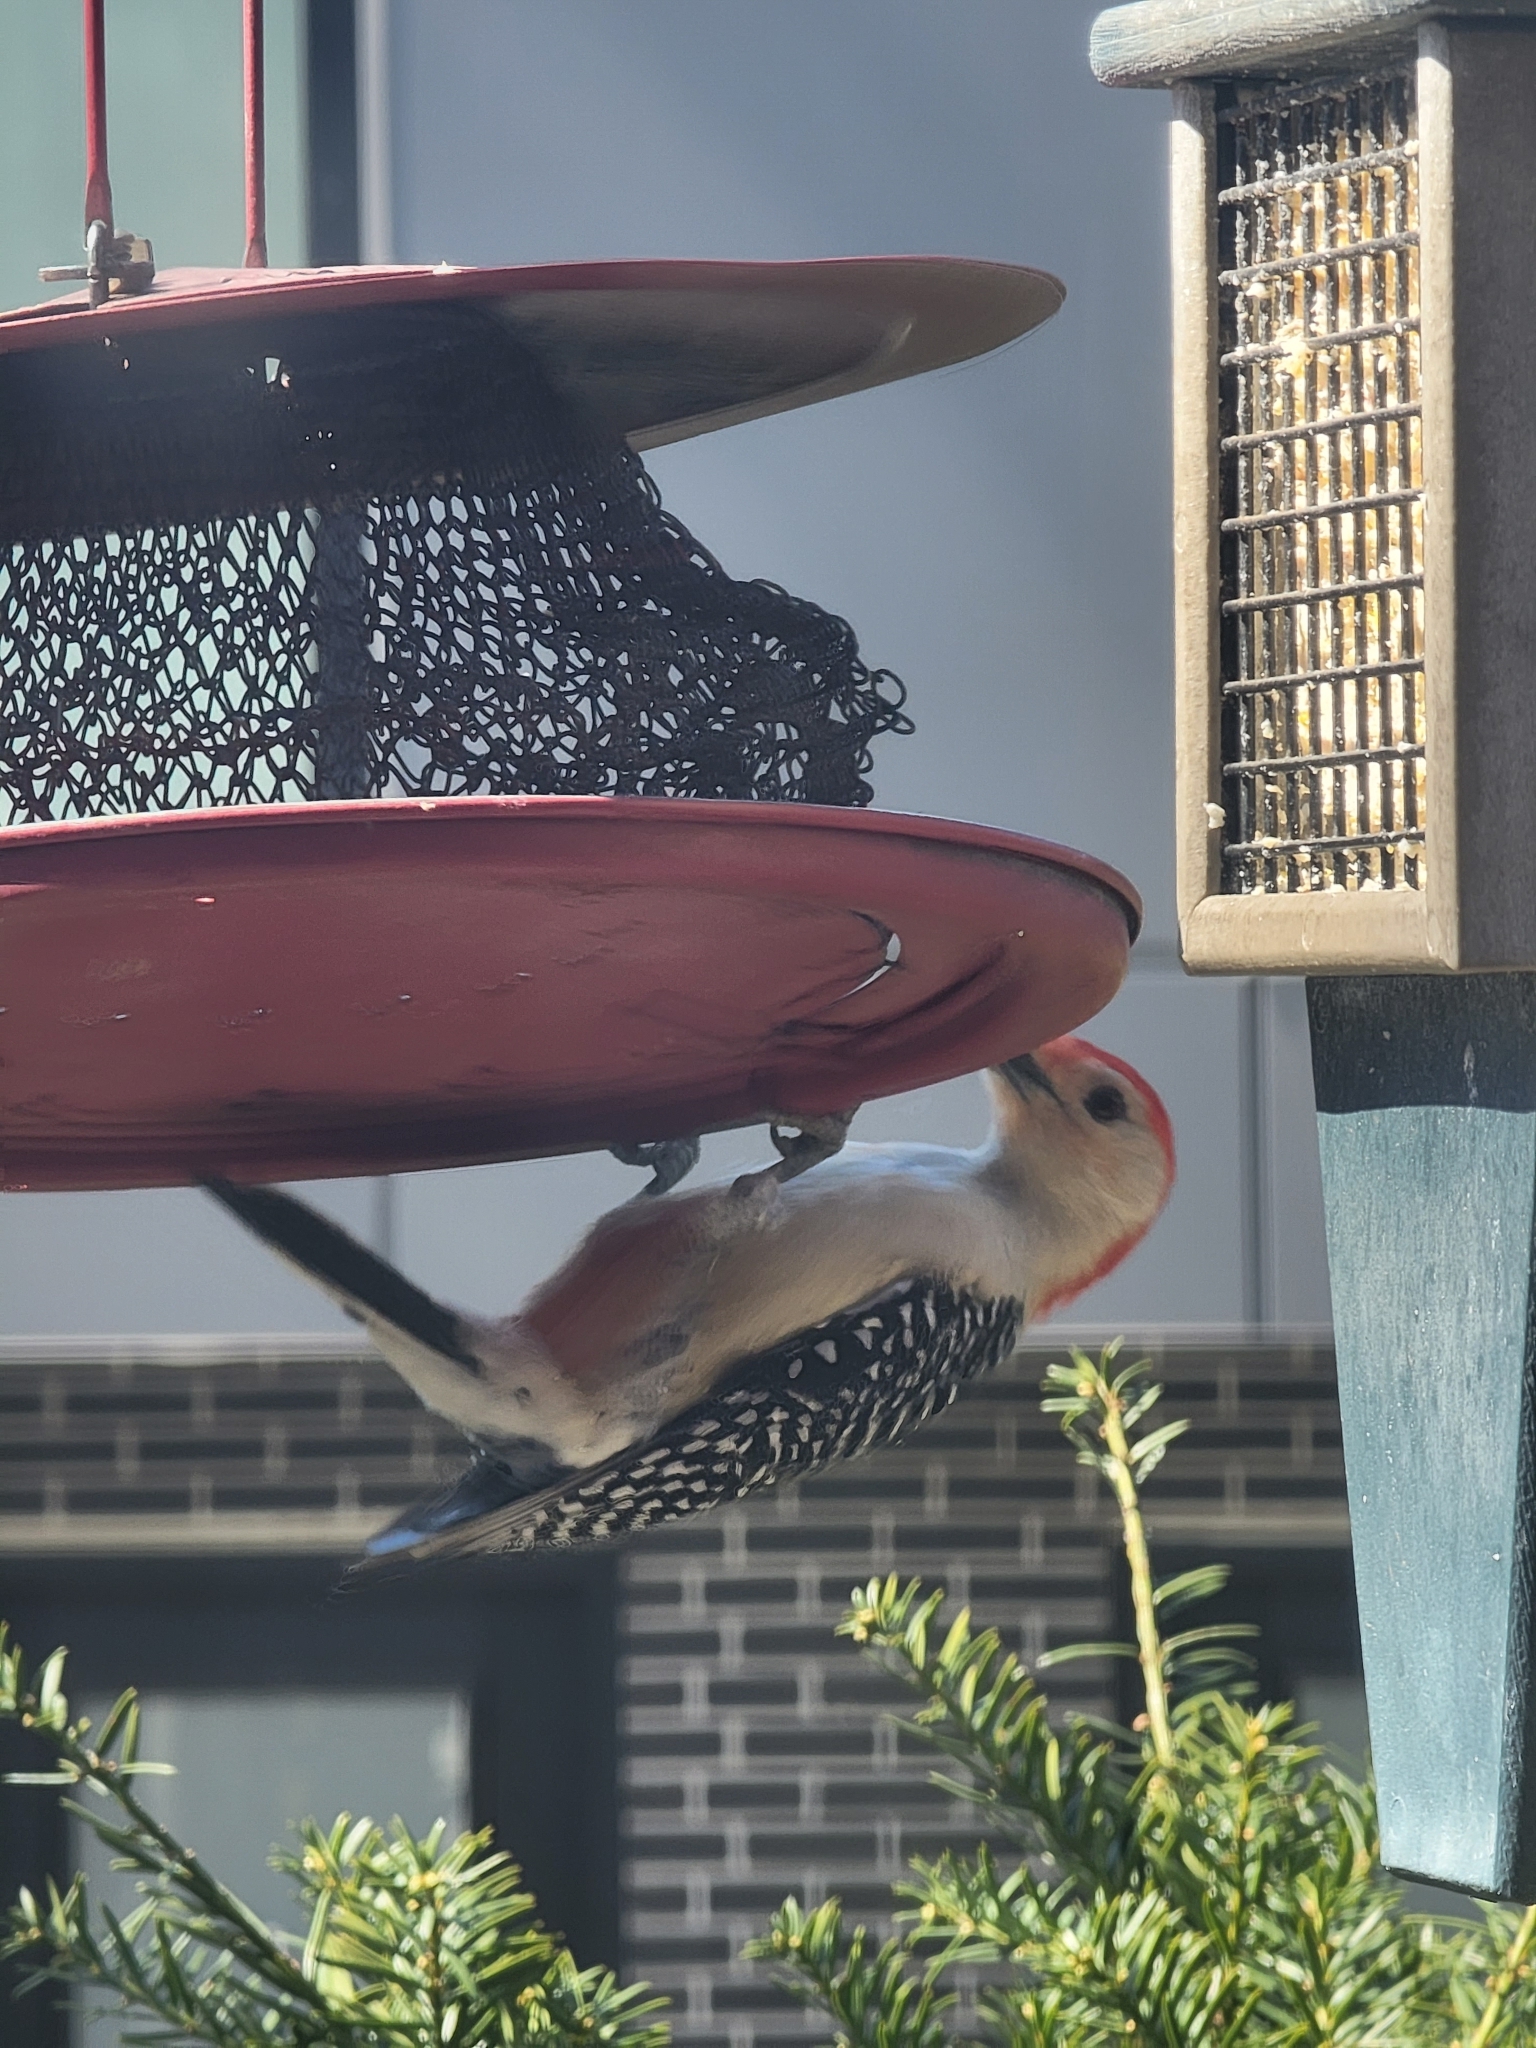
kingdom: Animalia
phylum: Chordata
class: Aves
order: Piciformes
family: Picidae
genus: Melanerpes
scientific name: Melanerpes carolinus
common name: Red-bellied woodpecker
